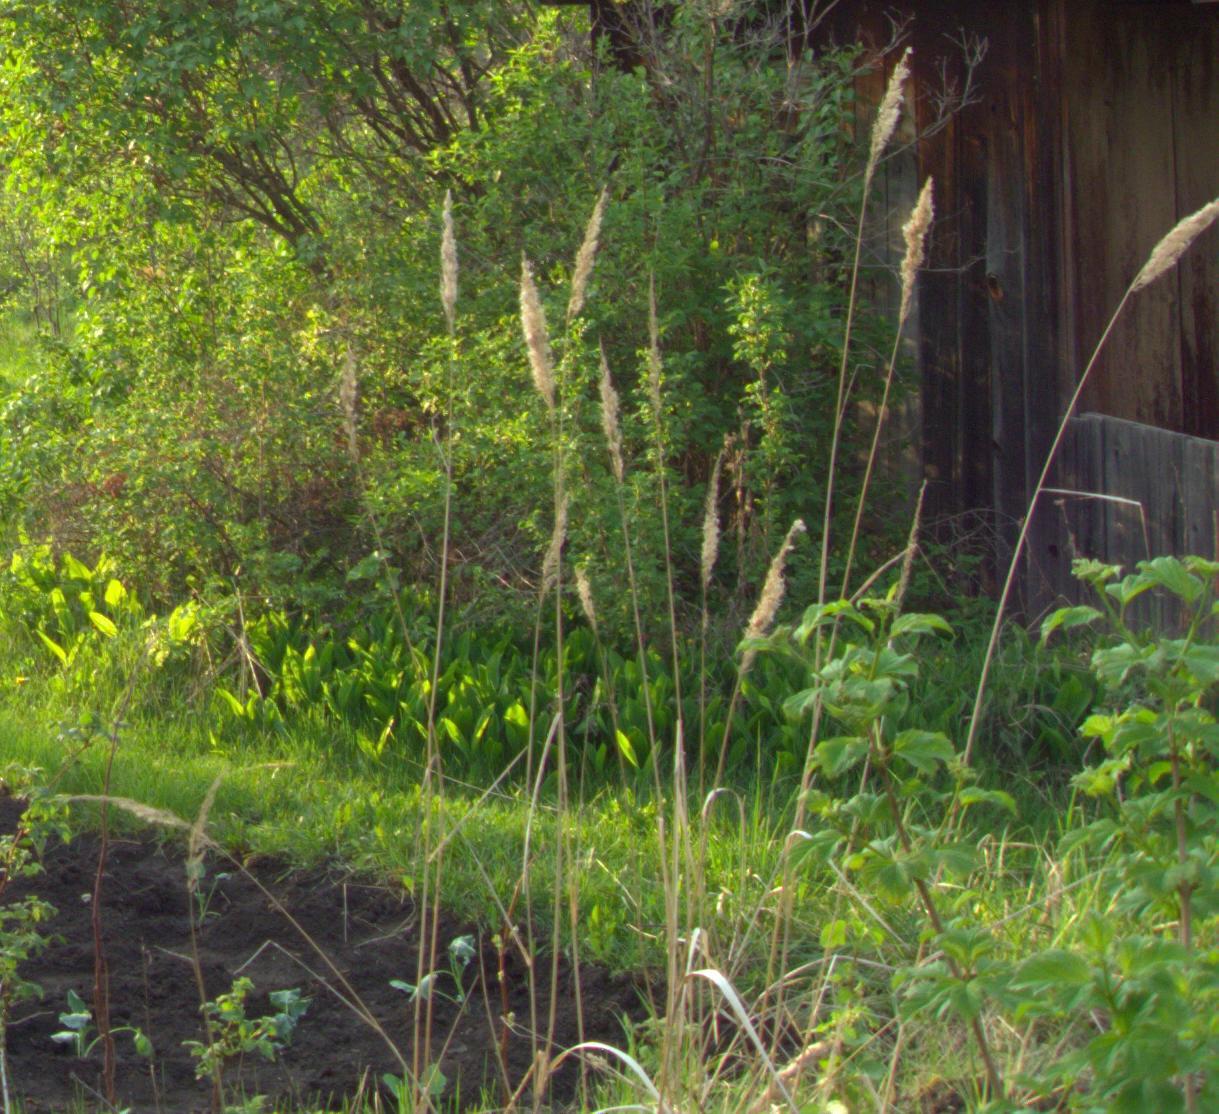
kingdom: Plantae
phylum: Tracheophyta
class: Liliopsida
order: Poales
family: Poaceae
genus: Calamagrostis
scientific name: Calamagrostis epigejos
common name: Wood small-reed
